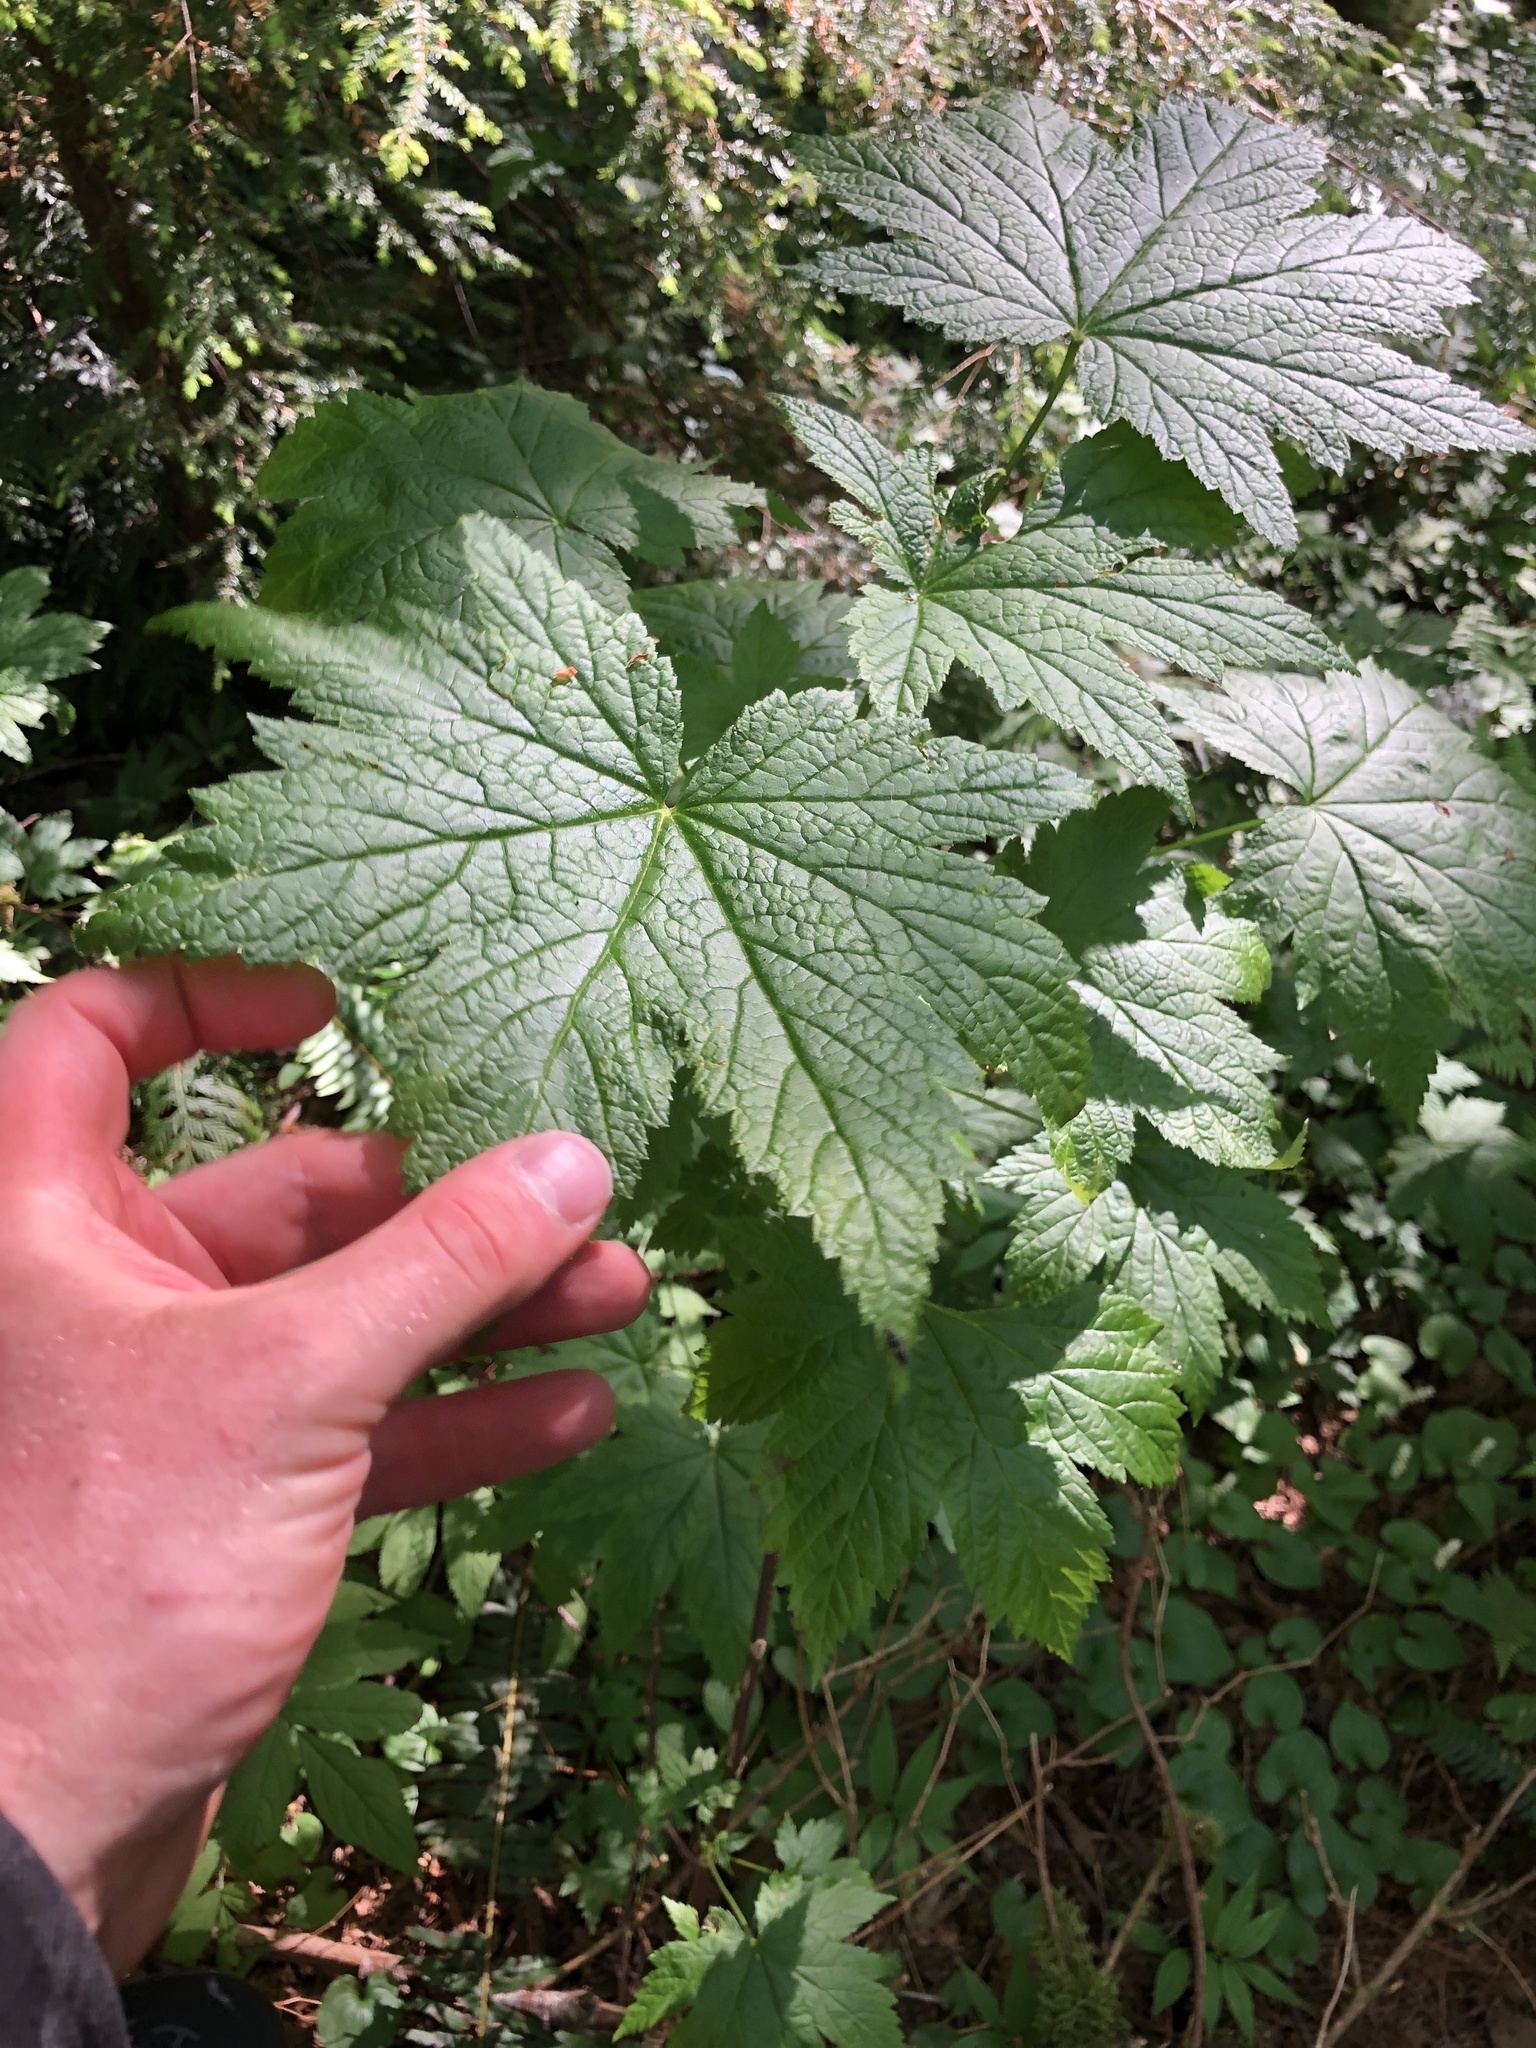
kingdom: Plantae
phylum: Tracheophyta
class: Magnoliopsida
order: Saxifragales
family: Grossulariaceae
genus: Ribes
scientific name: Ribes bracteosum
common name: California black currant
